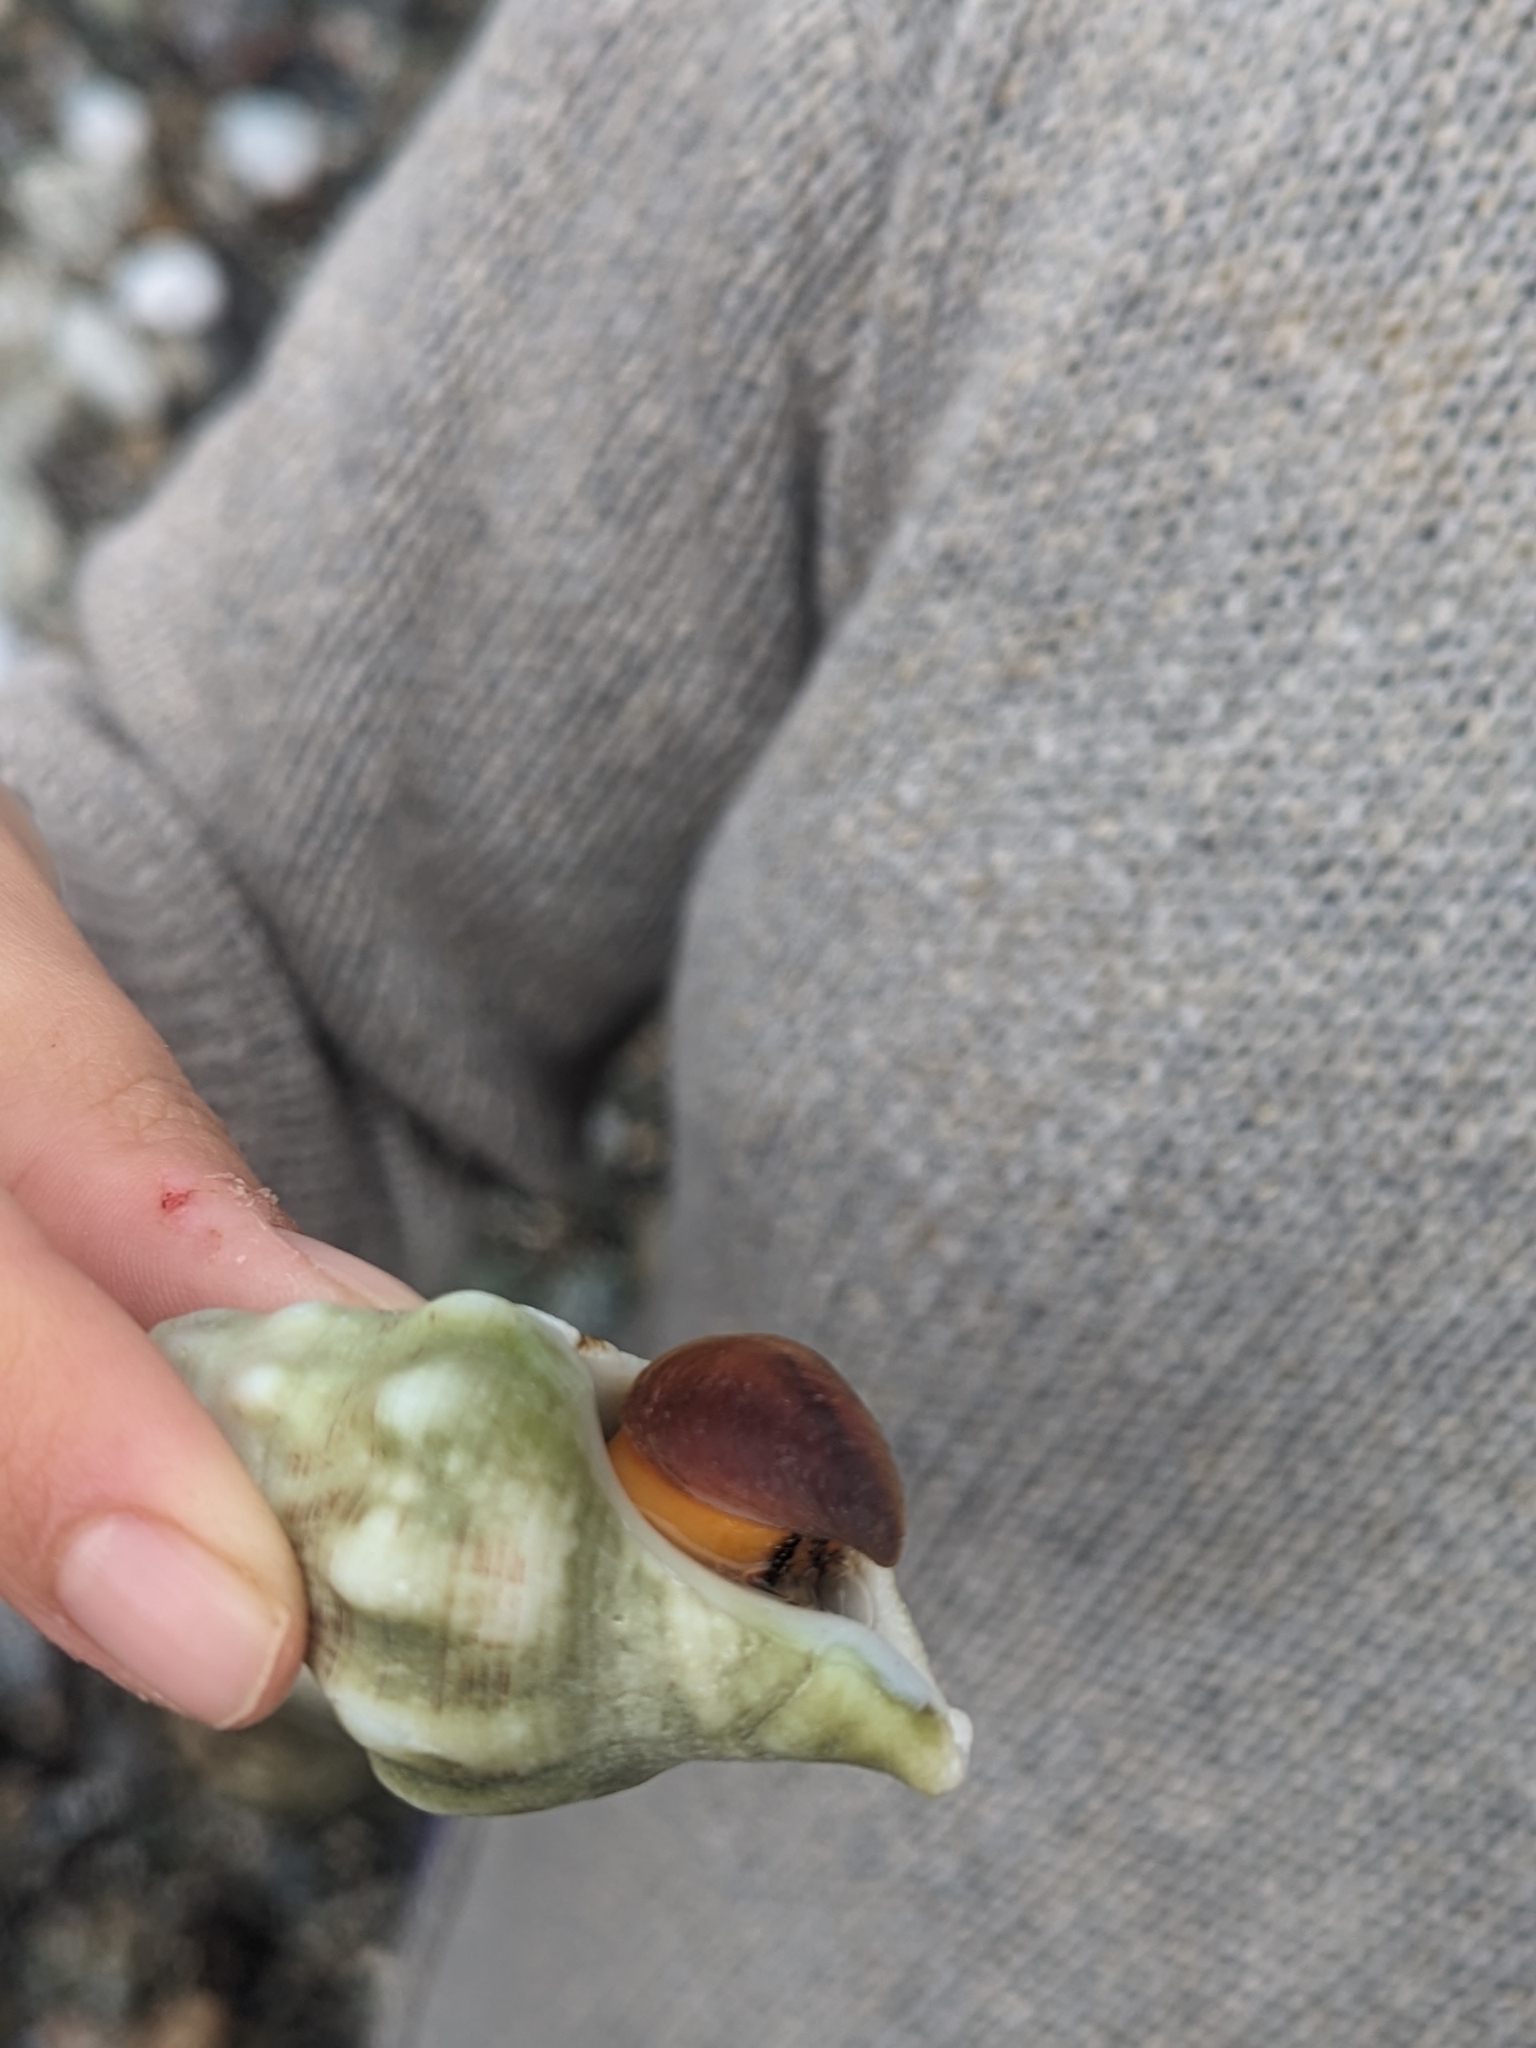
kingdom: Animalia
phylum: Mollusca
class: Gastropoda
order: Neogastropoda
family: Austrosiphonidae
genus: Kelletia
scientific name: Kelletia kelletii
